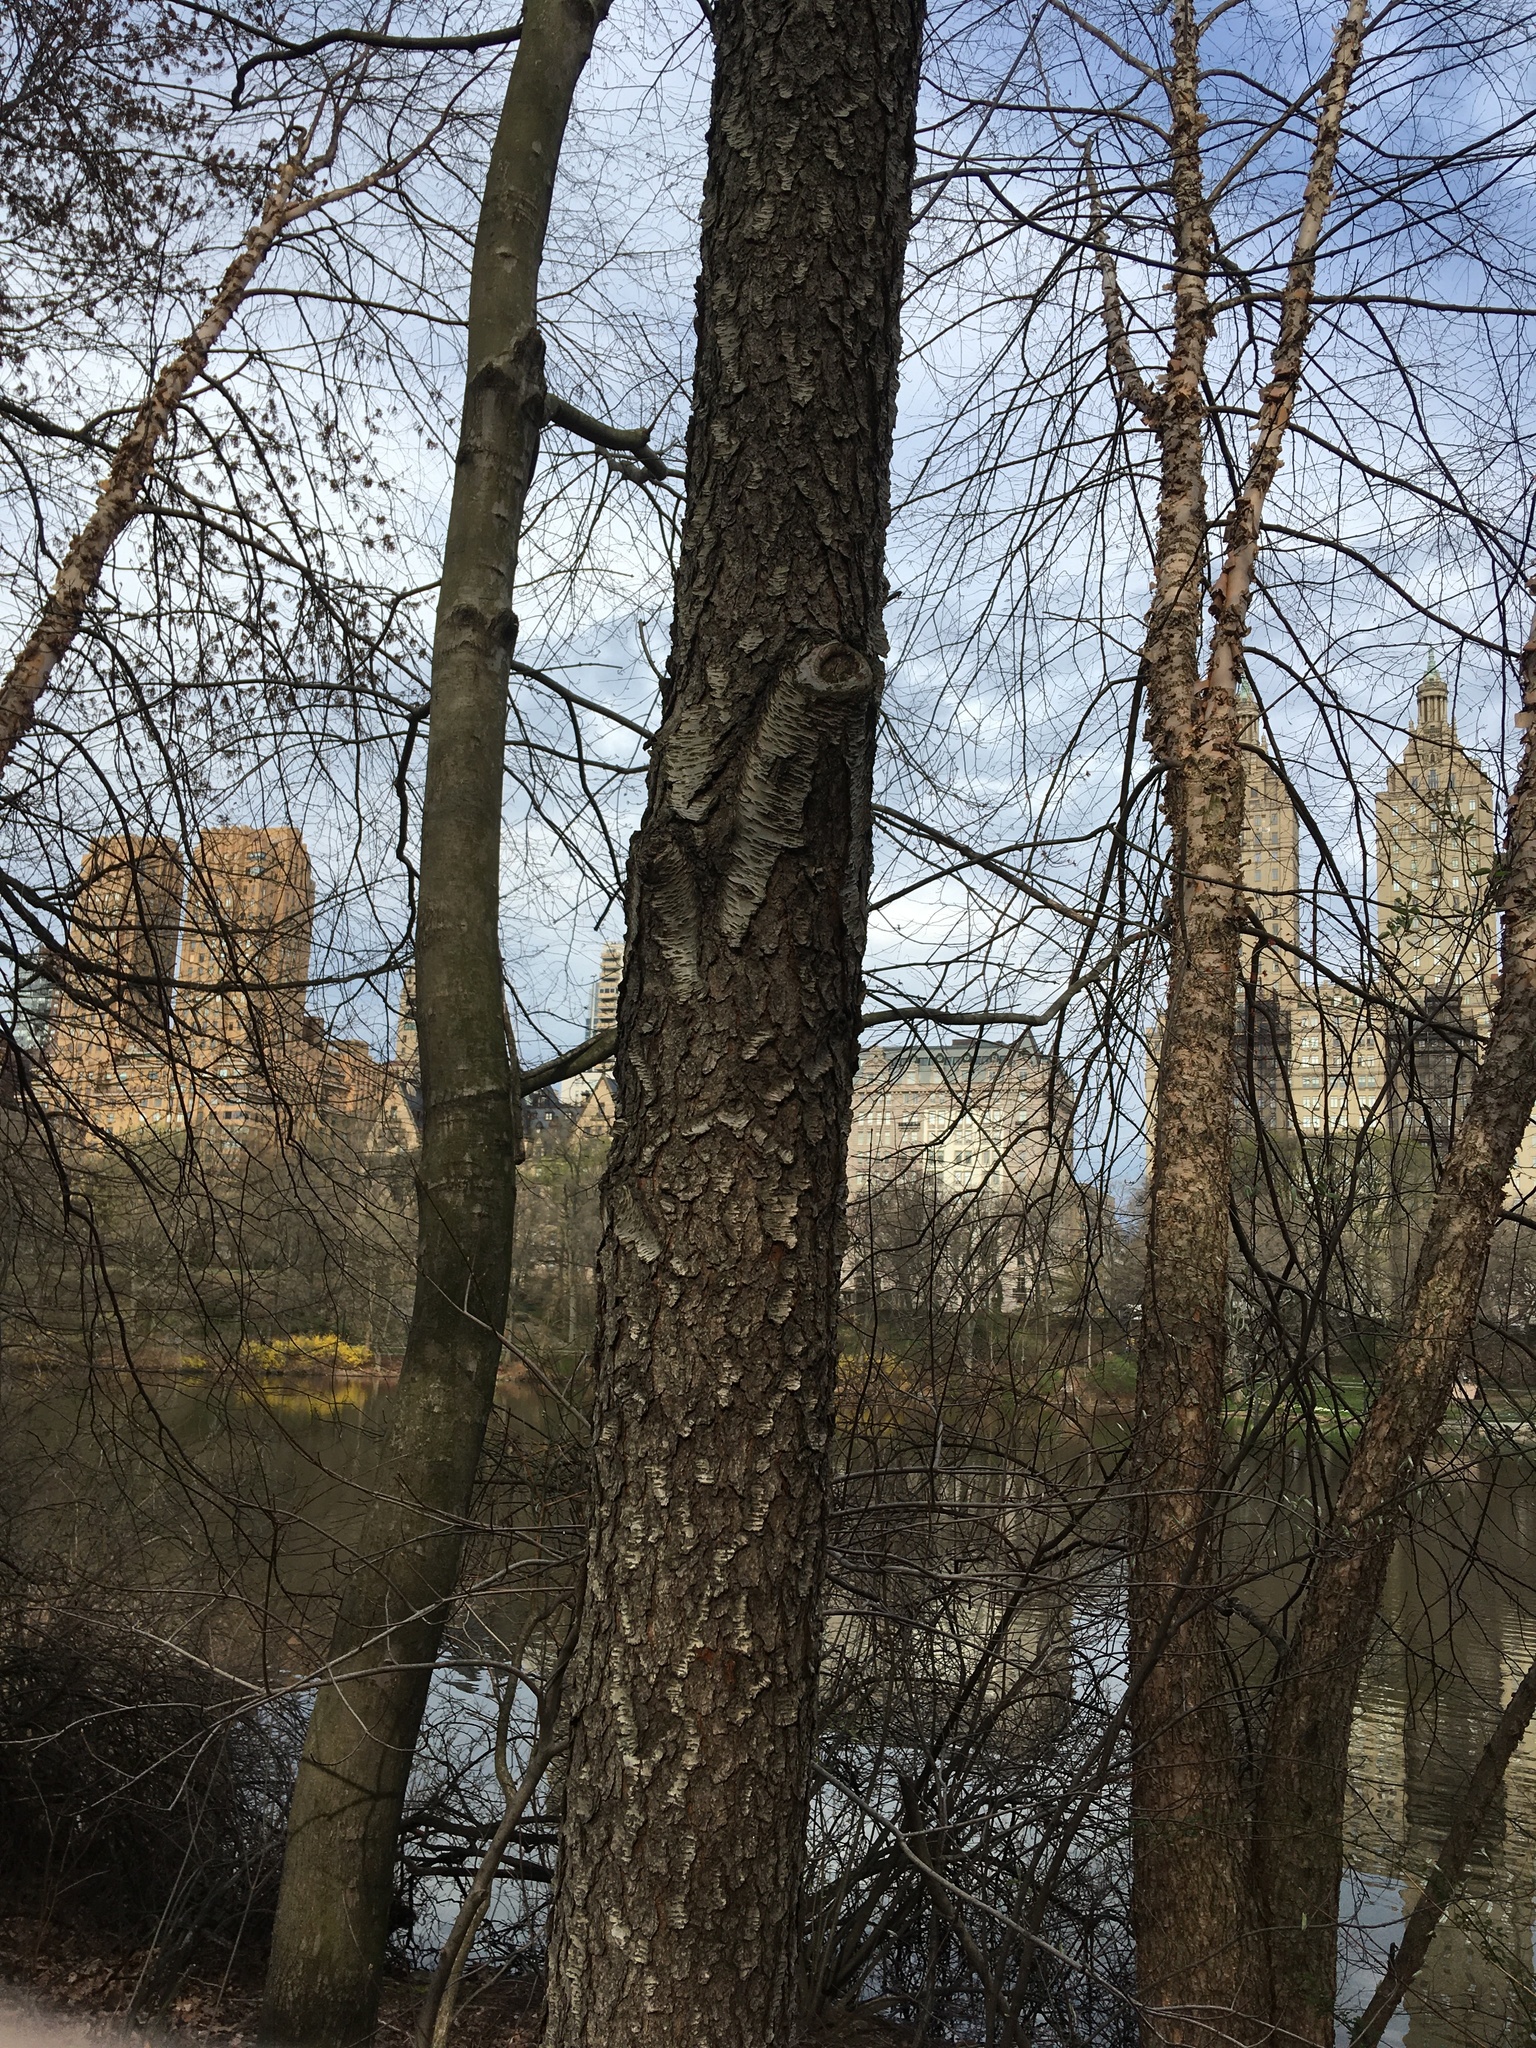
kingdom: Plantae
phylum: Tracheophyta
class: Magnoliopsida
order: Rosales
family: Rosaceae
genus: Prunus
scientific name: Prunus serotina
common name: Black cherry
